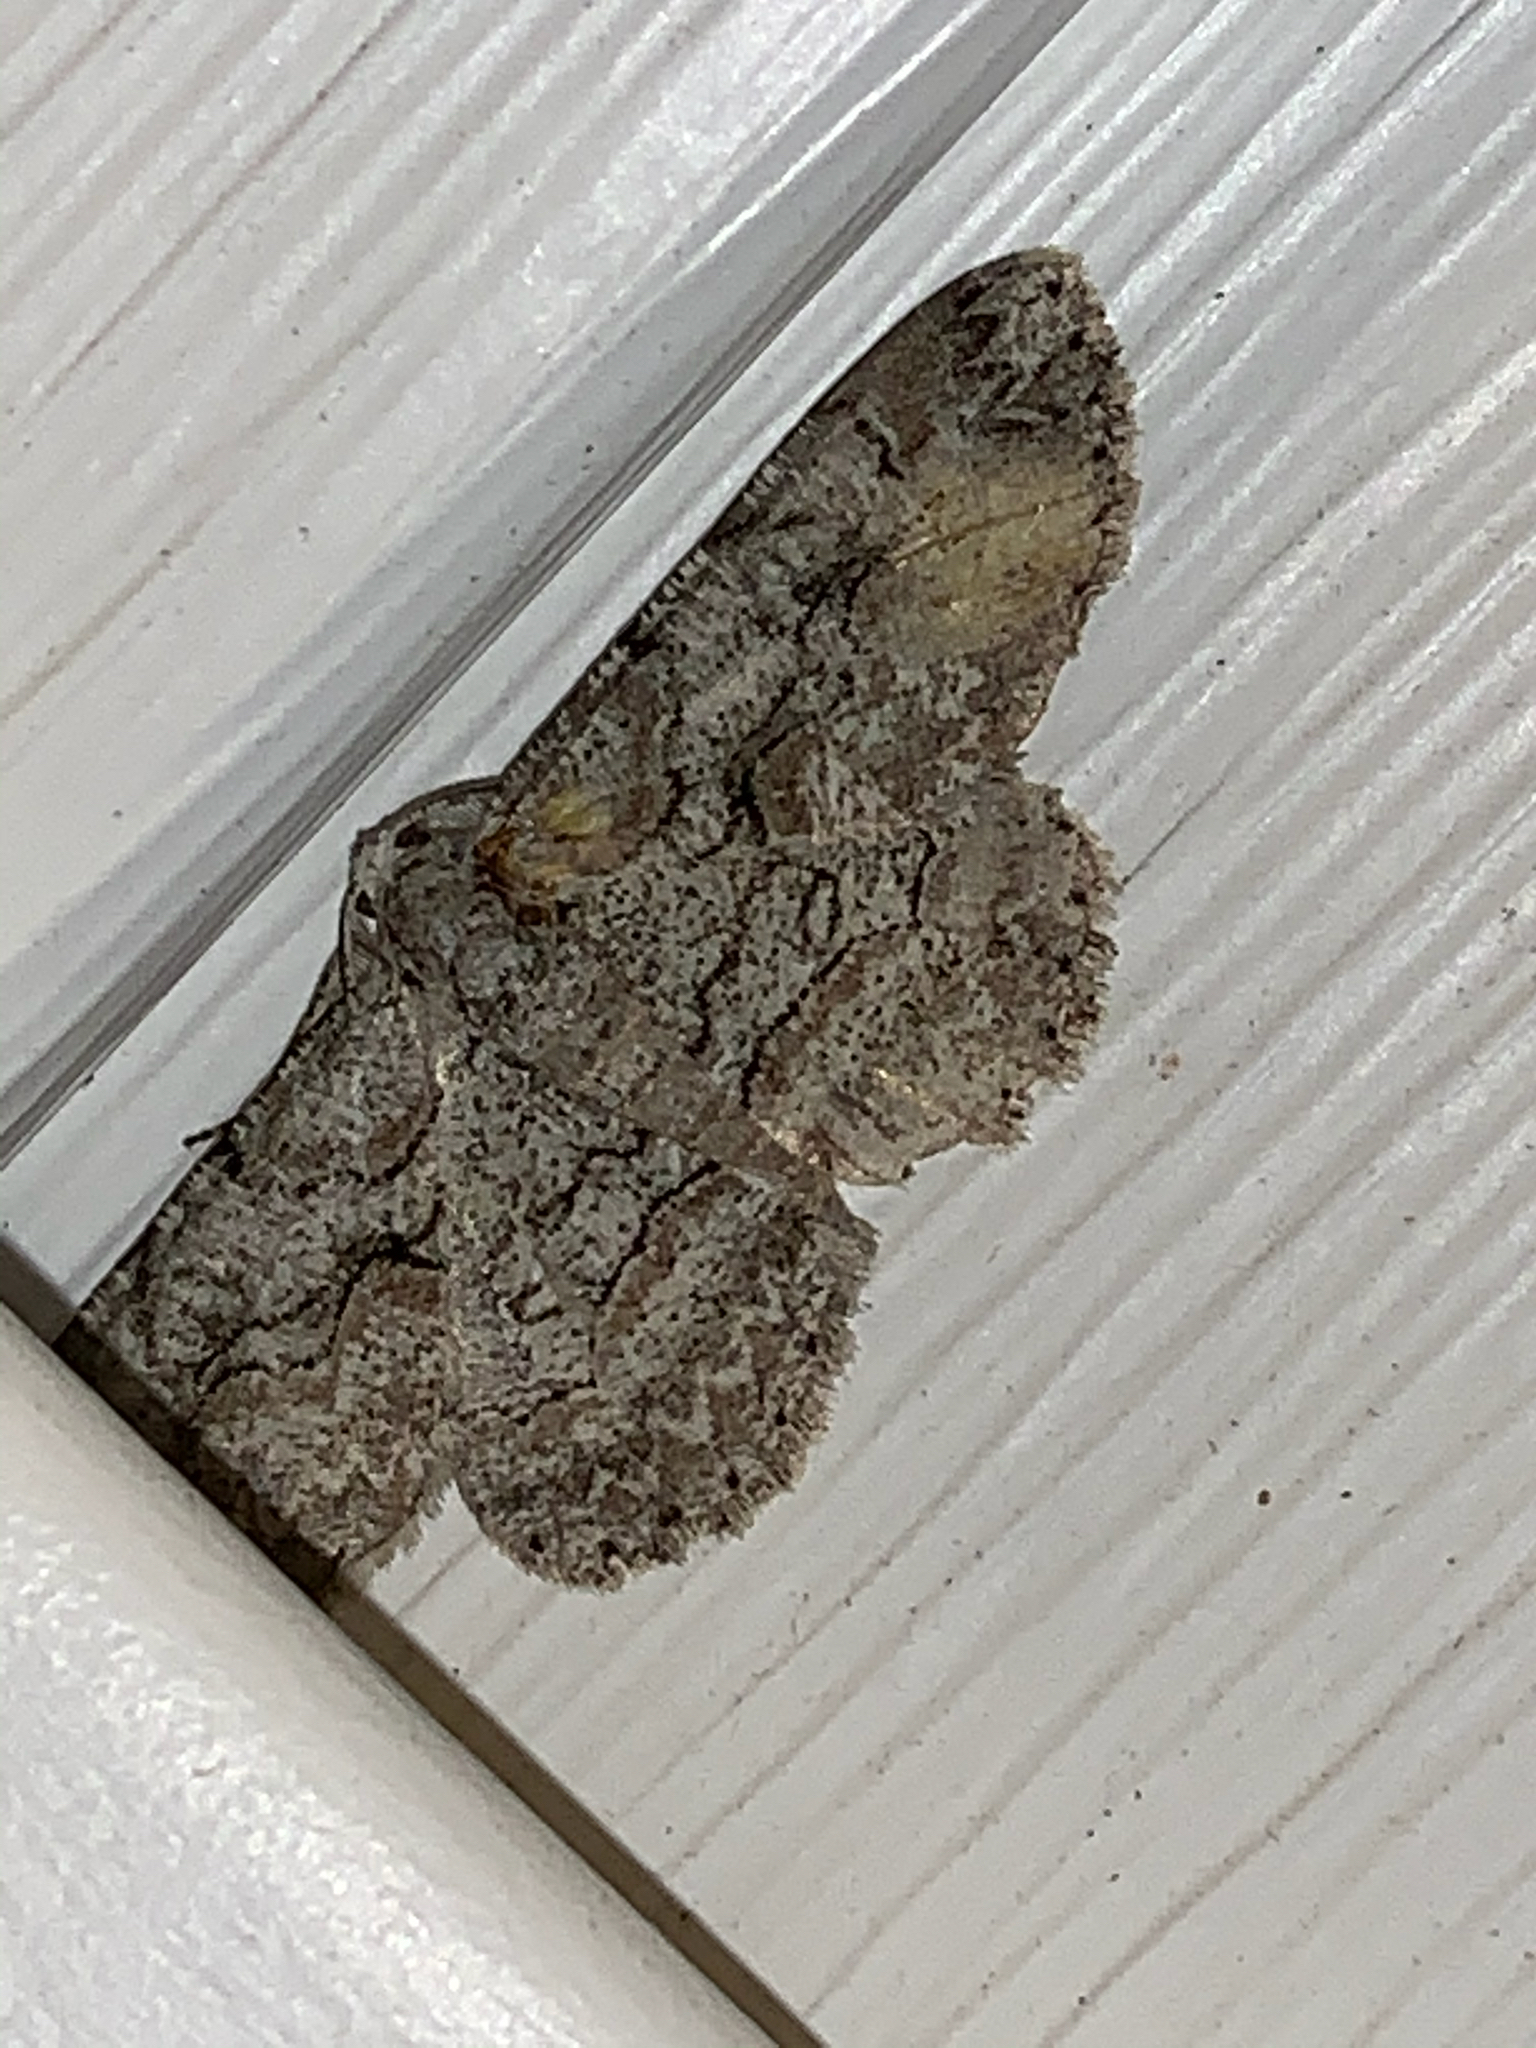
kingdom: Animalia
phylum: Arthropoda
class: Insecta
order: Lepidoptera
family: Geometridae
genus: Iridopsis
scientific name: Iridopsis defectaria
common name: Brown-shaded gray
